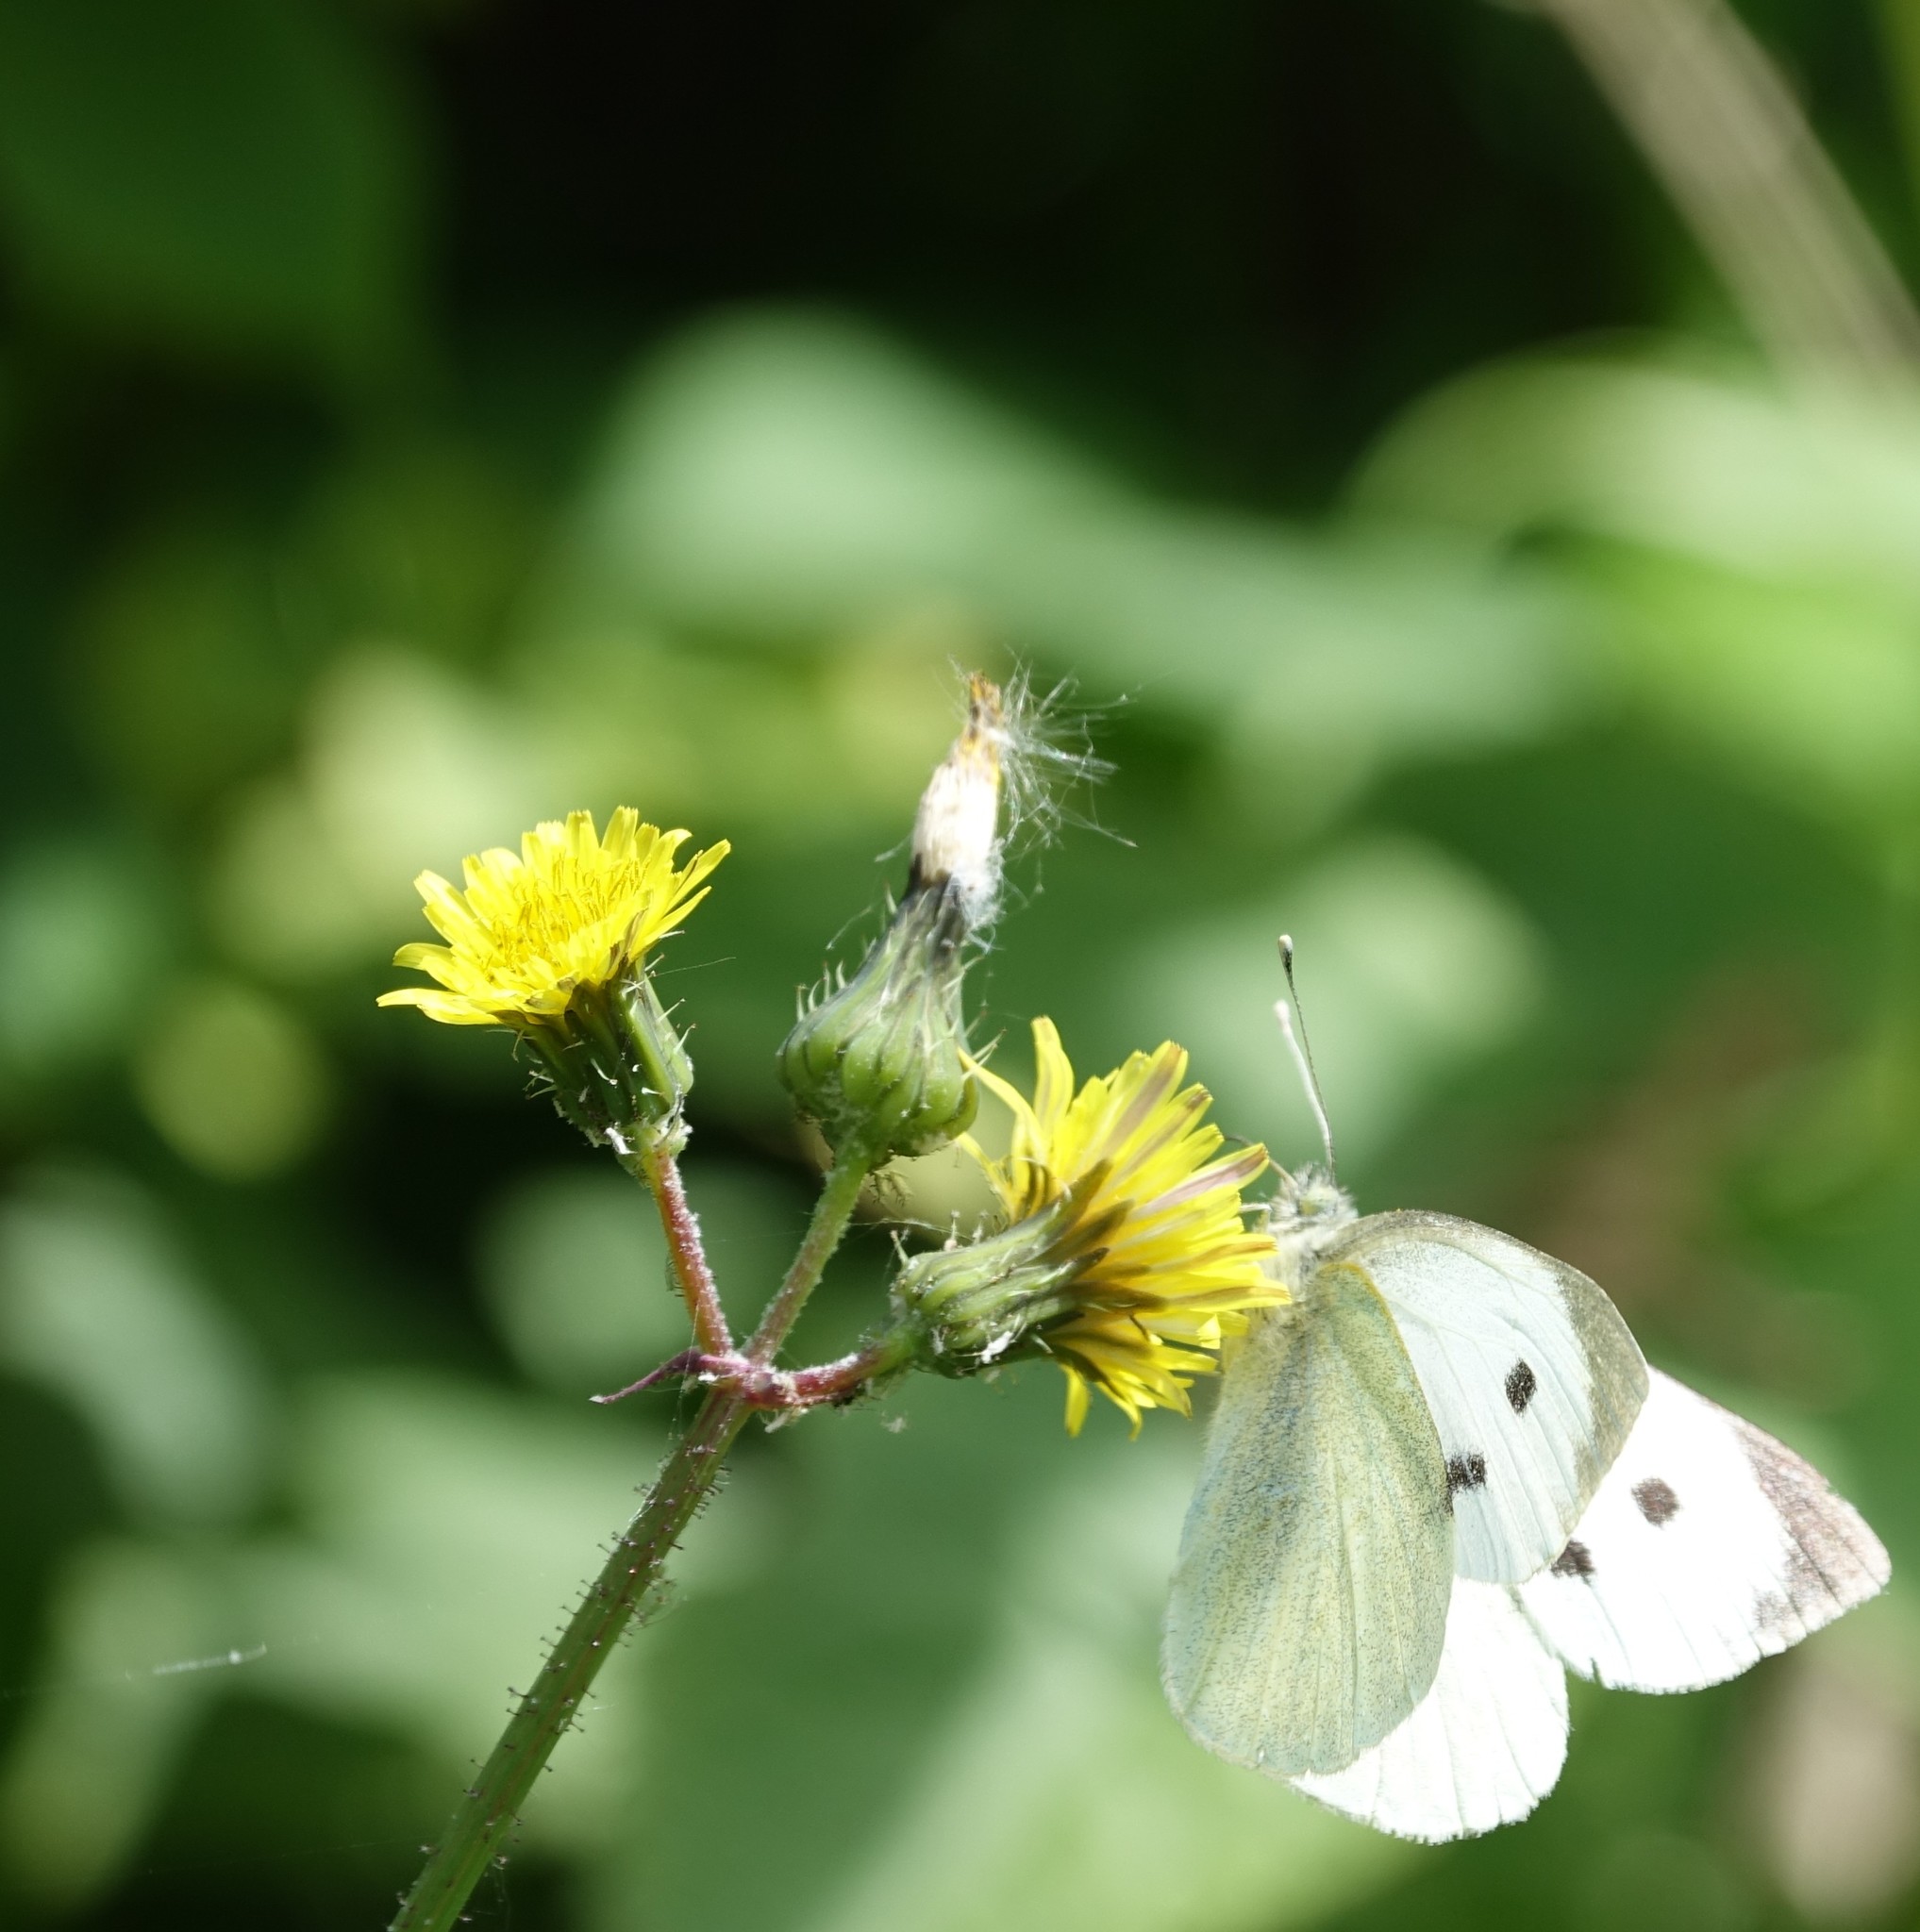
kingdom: Animalia
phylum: Arthropoda
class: Insecta
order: Lepidoptera
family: Pieridae
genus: Pieris
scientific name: Pieris brassicae
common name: Large white
